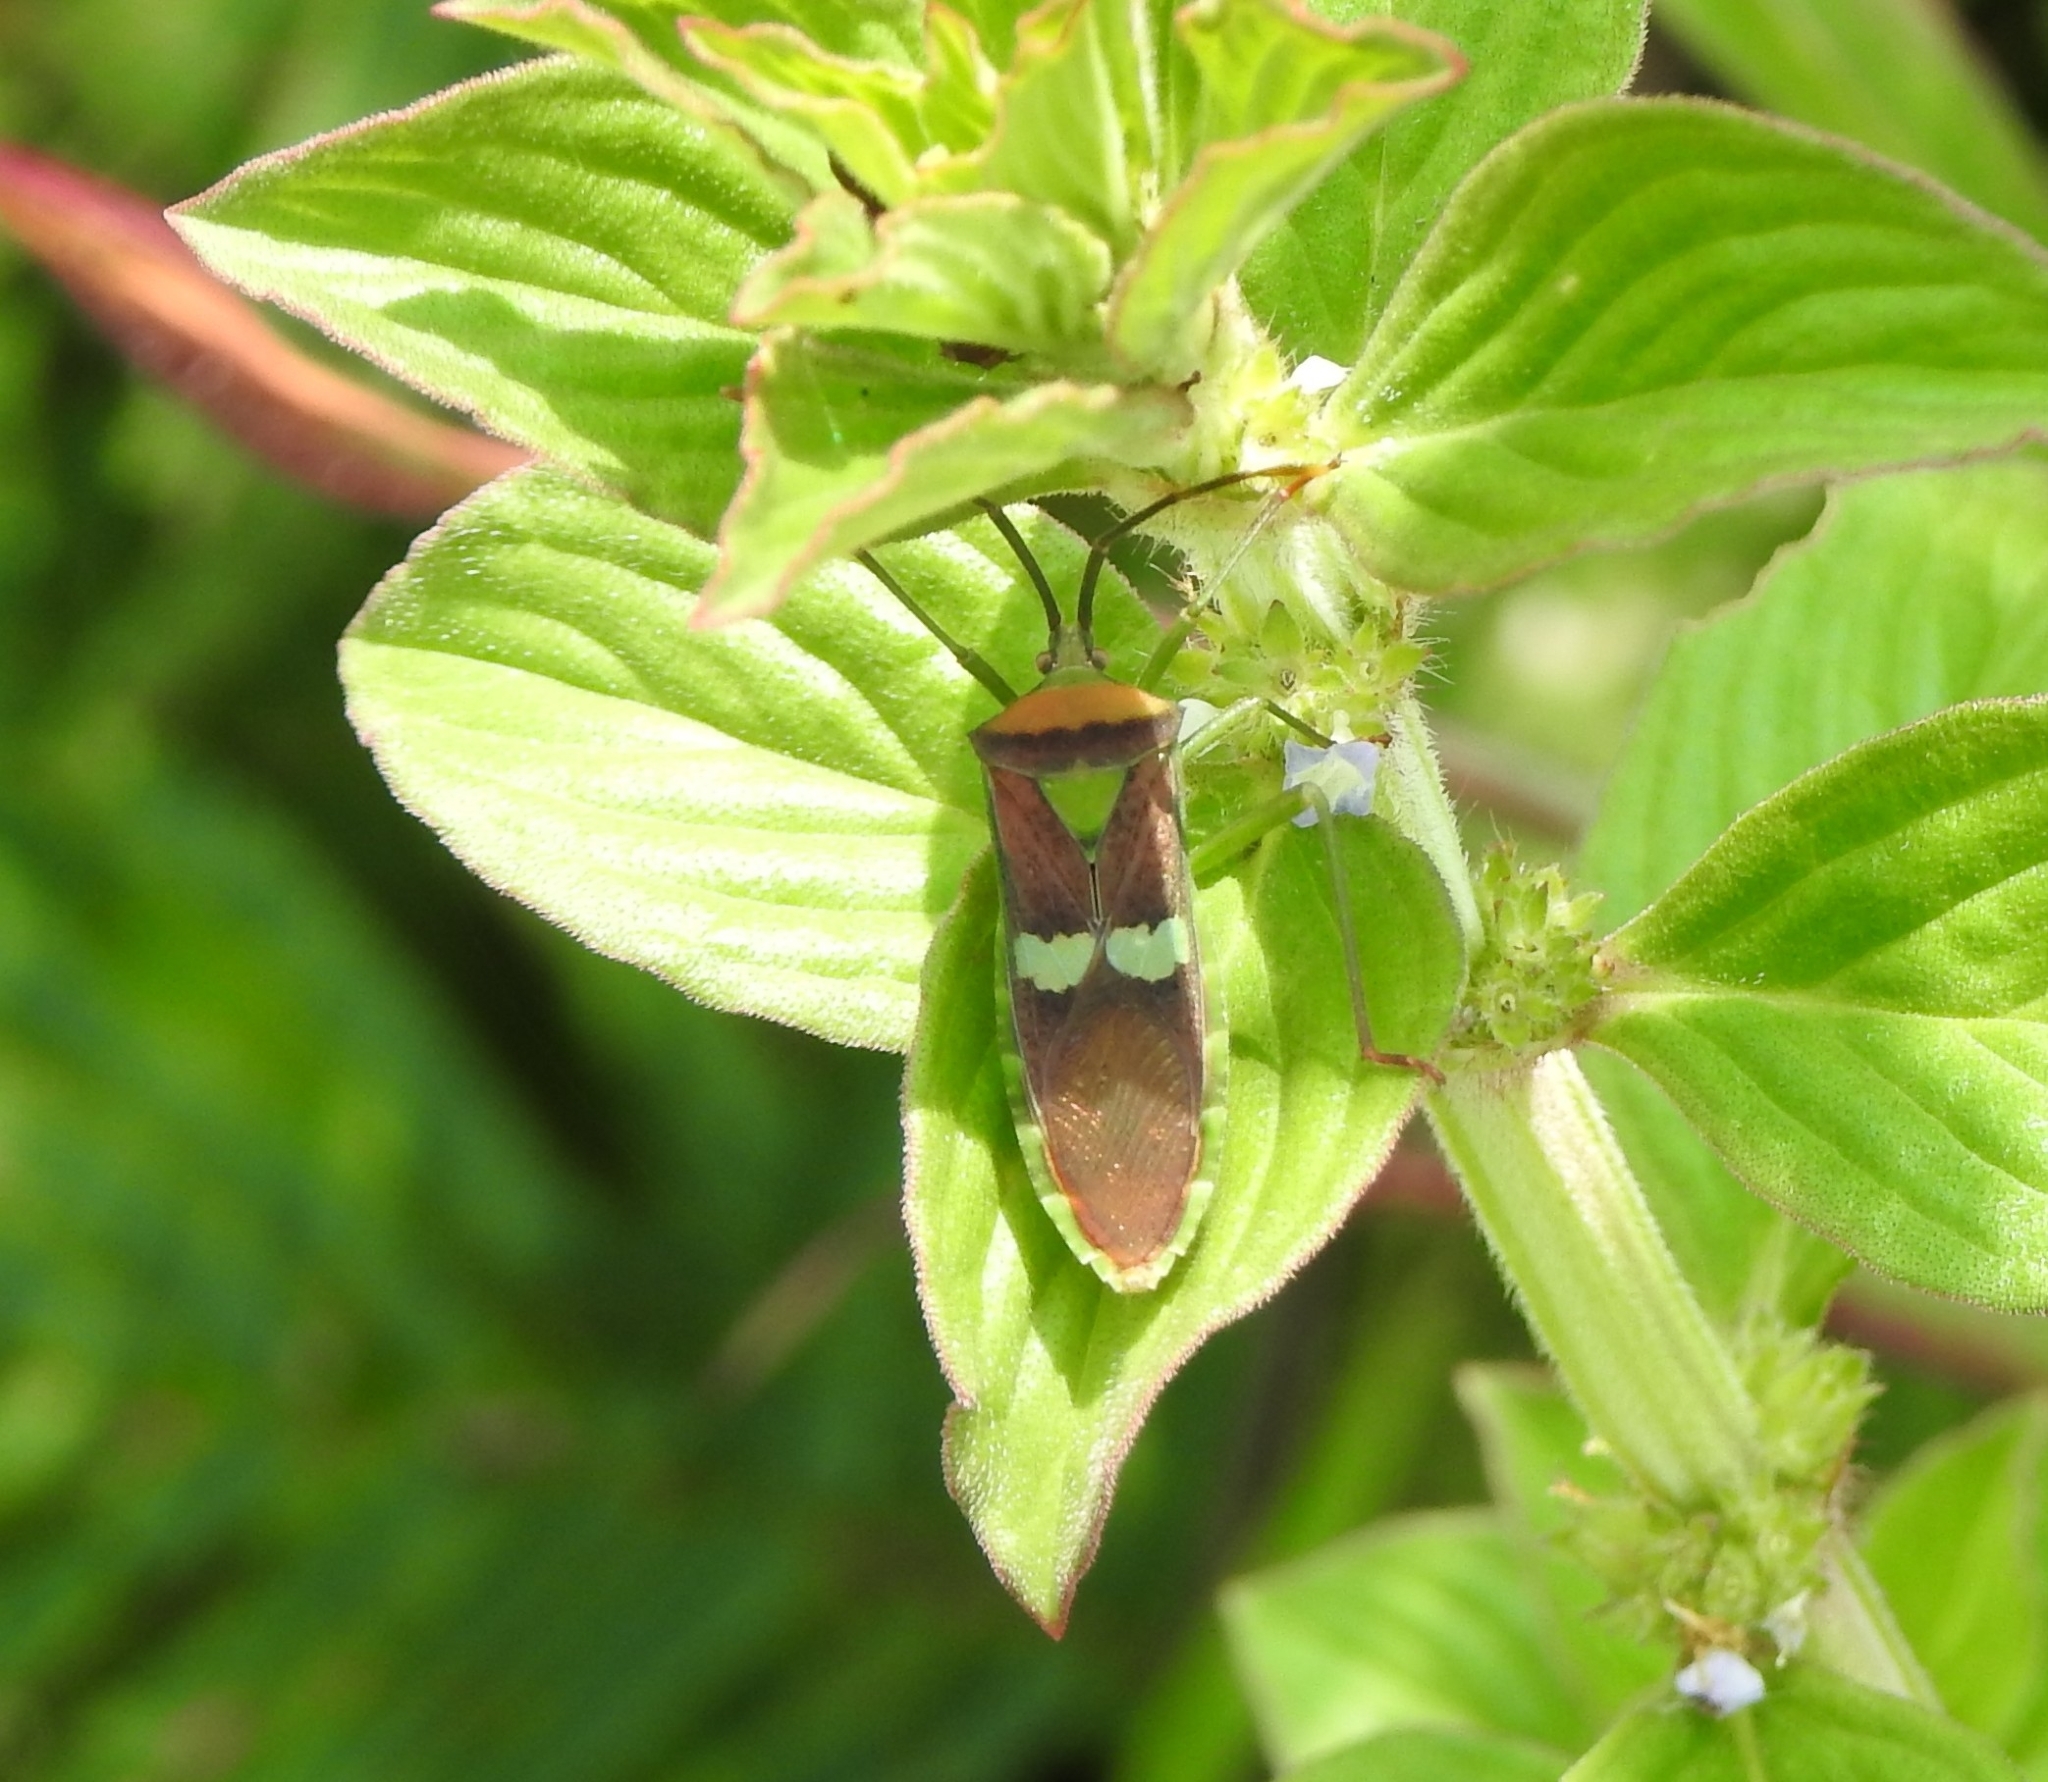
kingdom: Animalia
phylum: Arthropoda
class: Insecta
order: Hemiptera
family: Coreidae
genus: Prismatocerus
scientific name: Prismatocerus signatus
